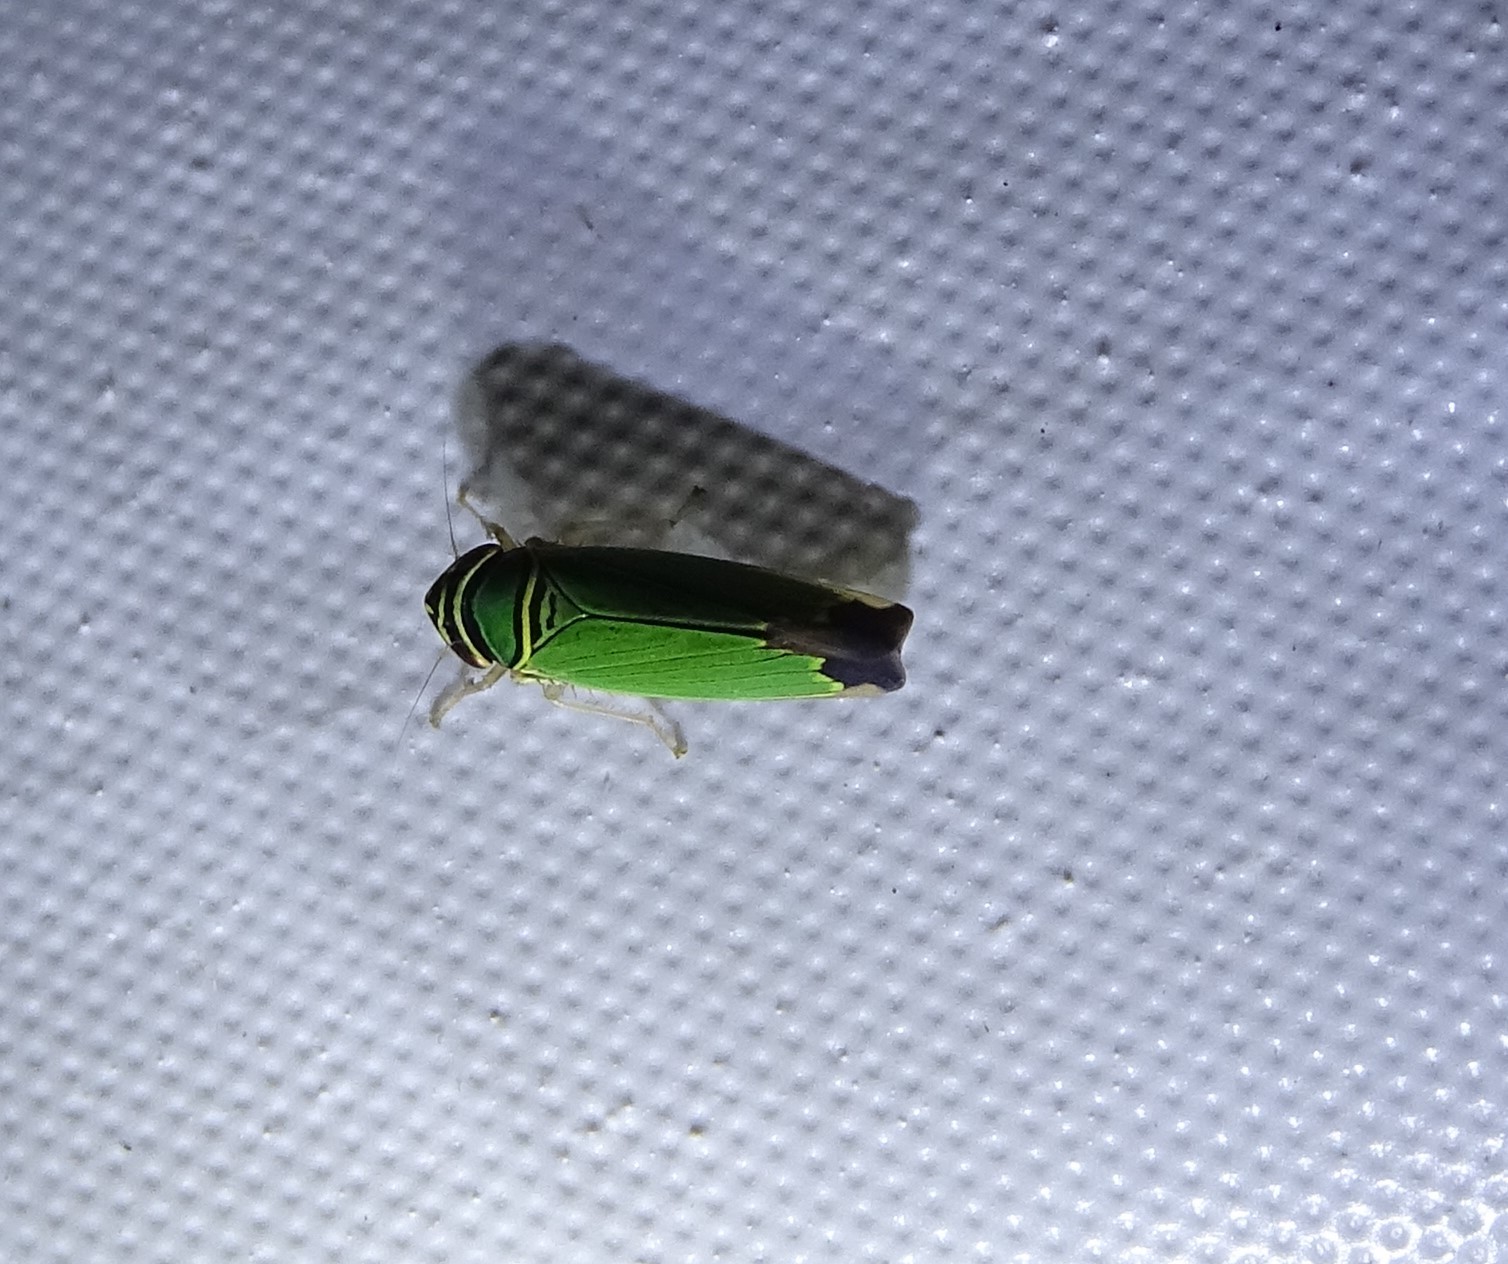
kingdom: Animalia
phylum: Arthropoda
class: Insecta
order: Hemiptera
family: Cicadellidae
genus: Tylozygus
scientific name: Tylozygus geometricus
